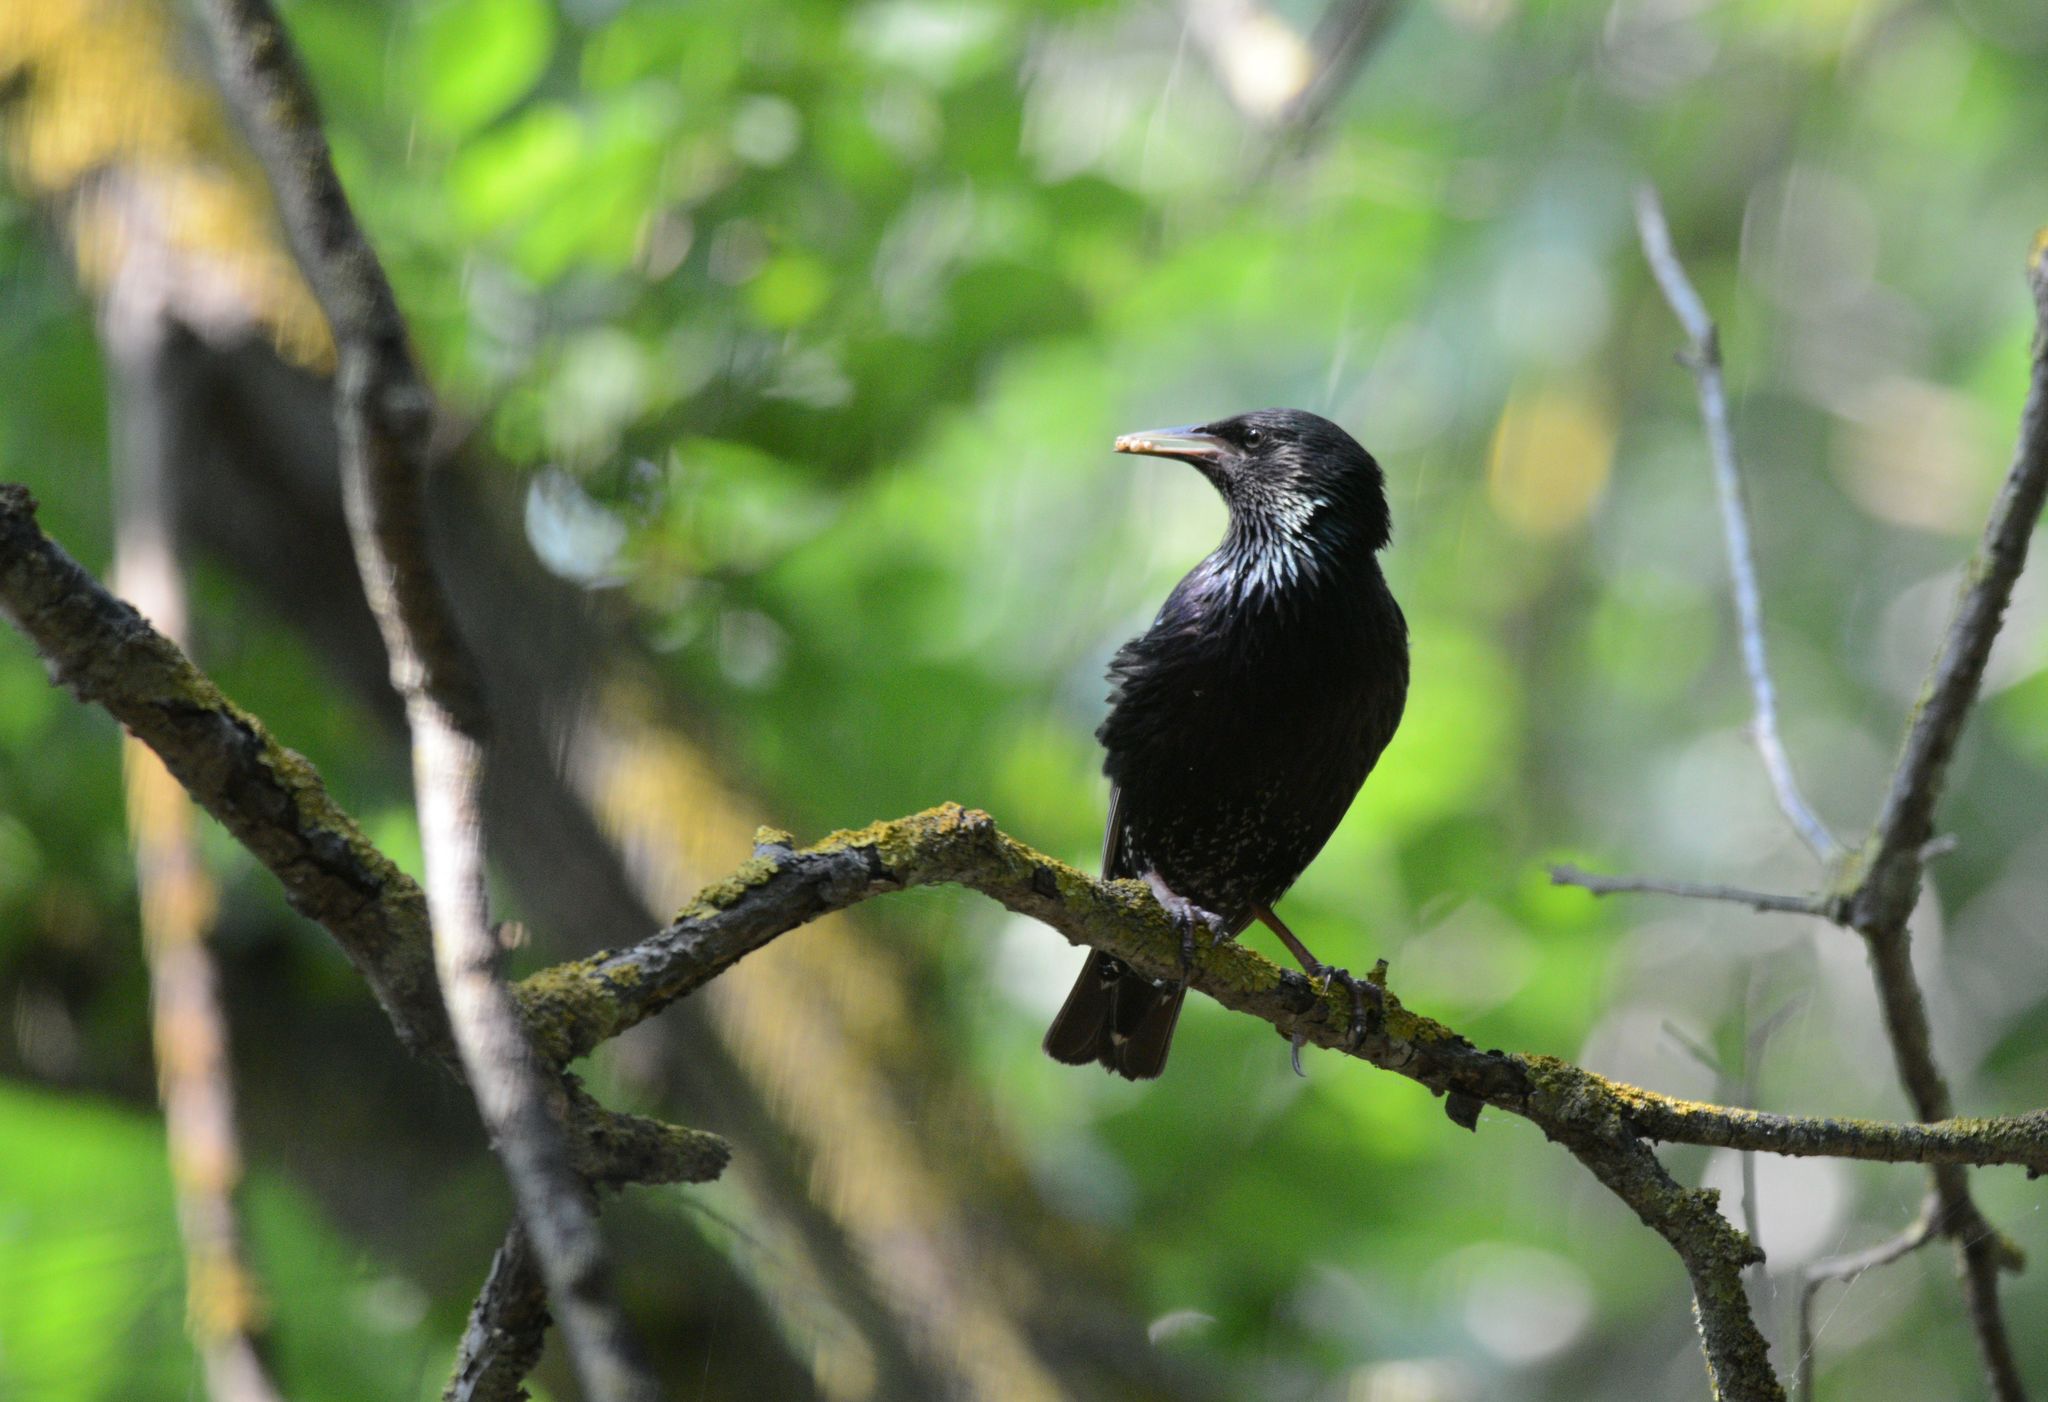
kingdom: Animalia
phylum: Chordata
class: Aves
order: Passeriformes
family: Sturnidae
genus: Sturnus
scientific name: Sturnus vulgaris
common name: Common starling
